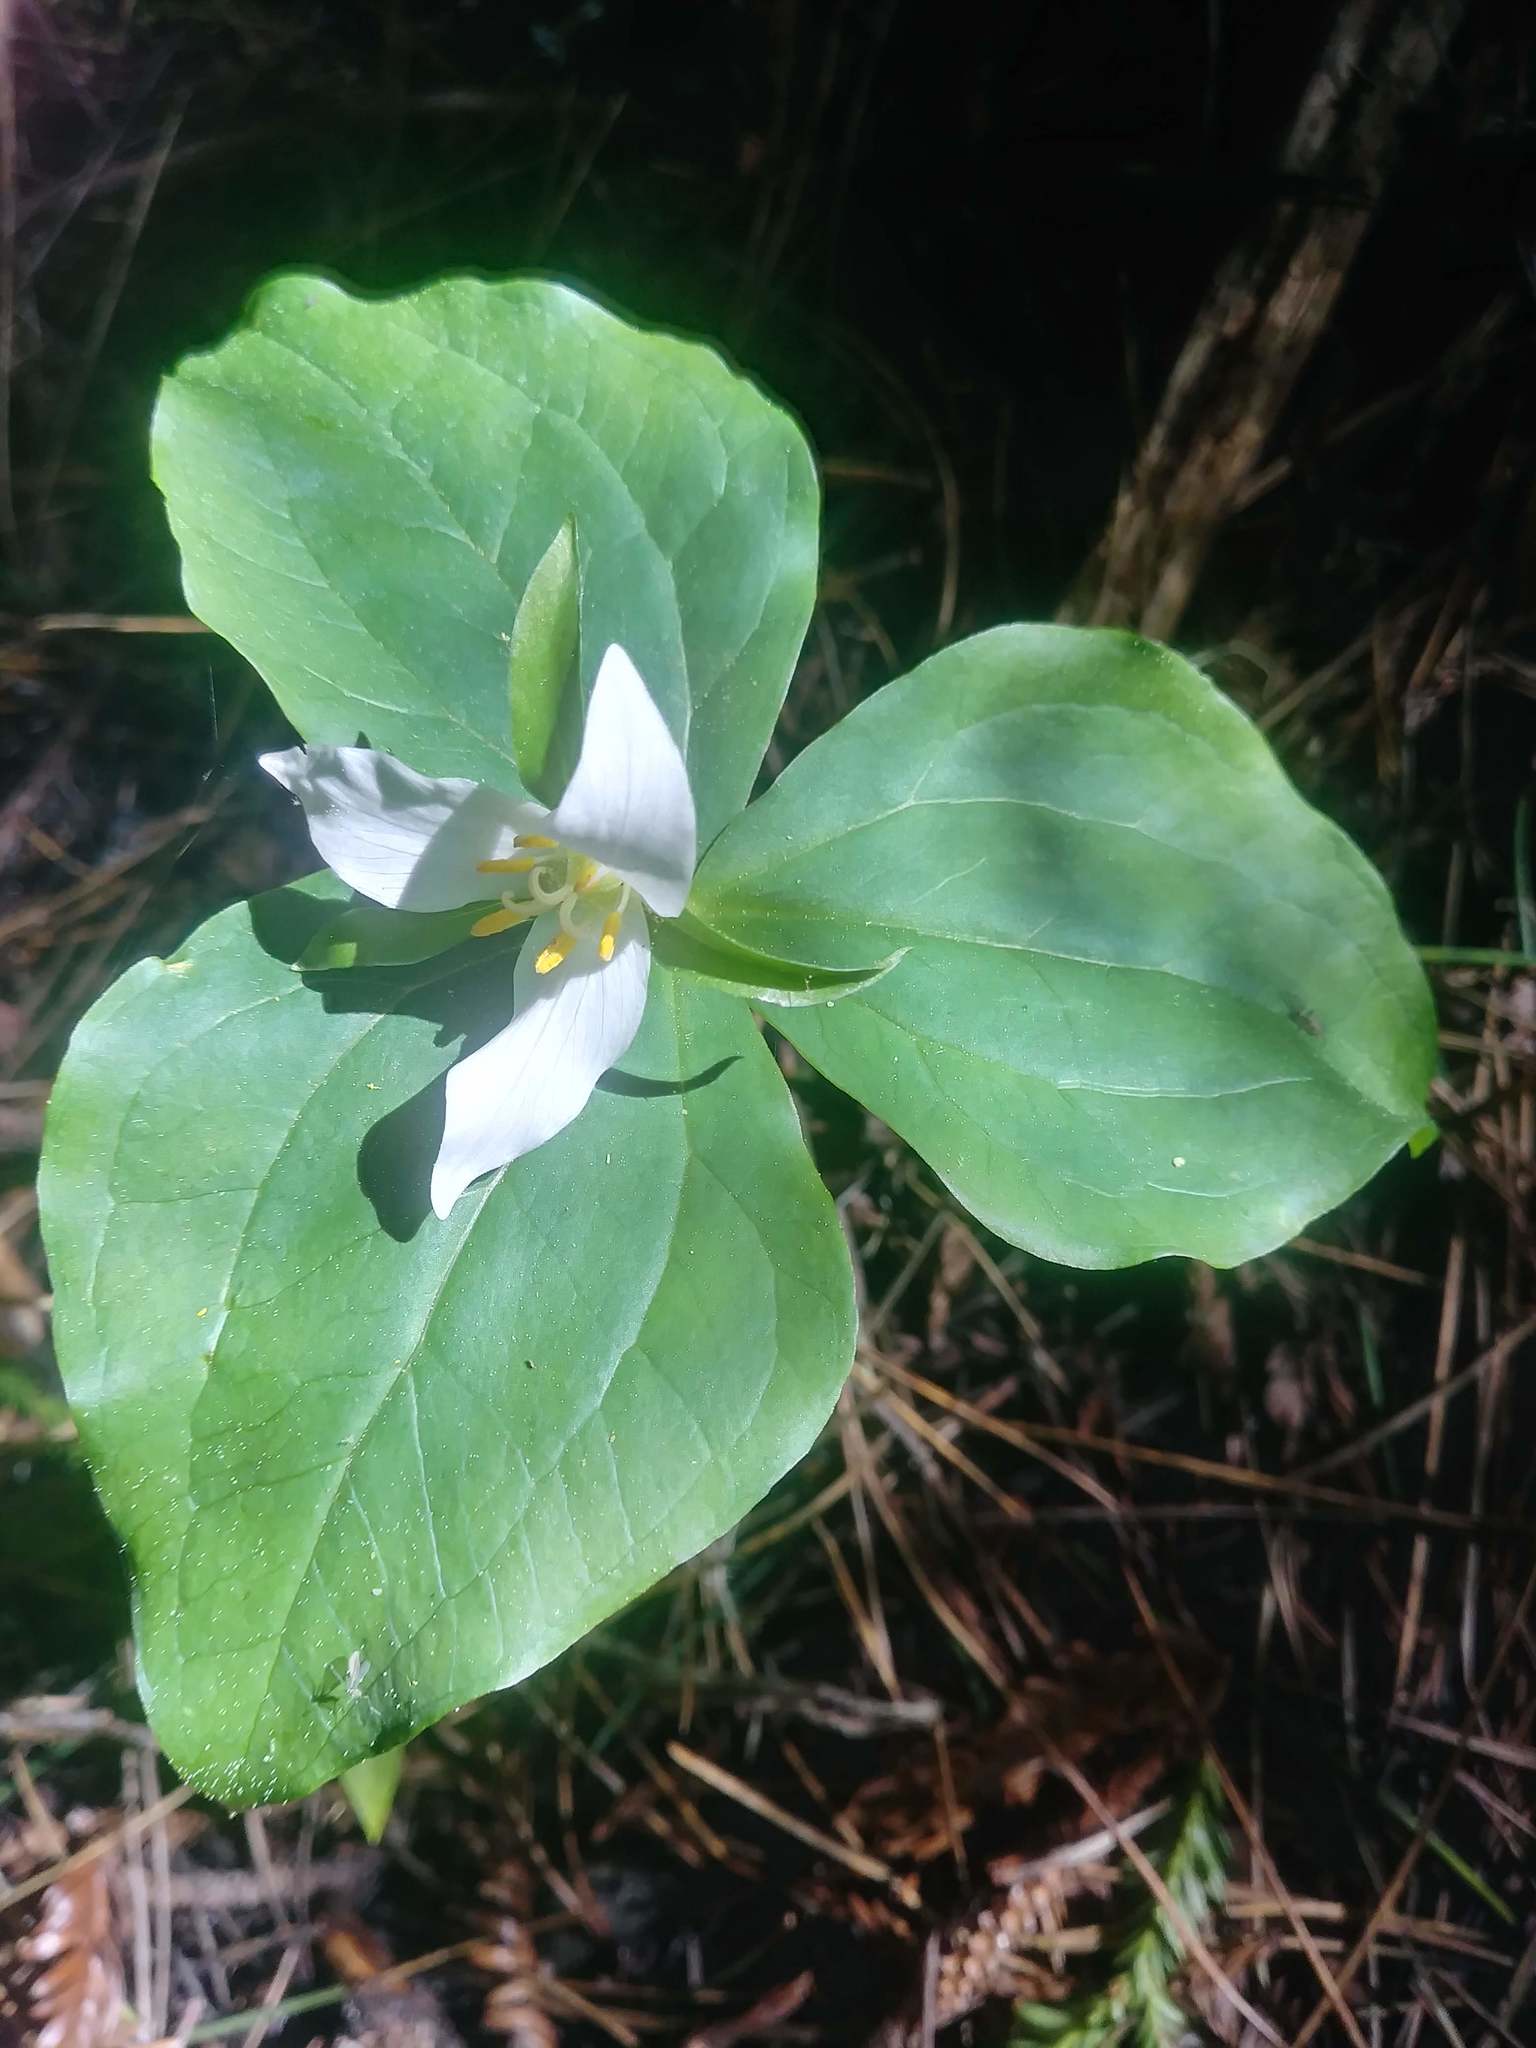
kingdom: Plantae
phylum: Tracheophyta
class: Liliopsida
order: Liliales
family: Melanthiaceae
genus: Trillium
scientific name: Trillium ovatum
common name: Pacific trillium
